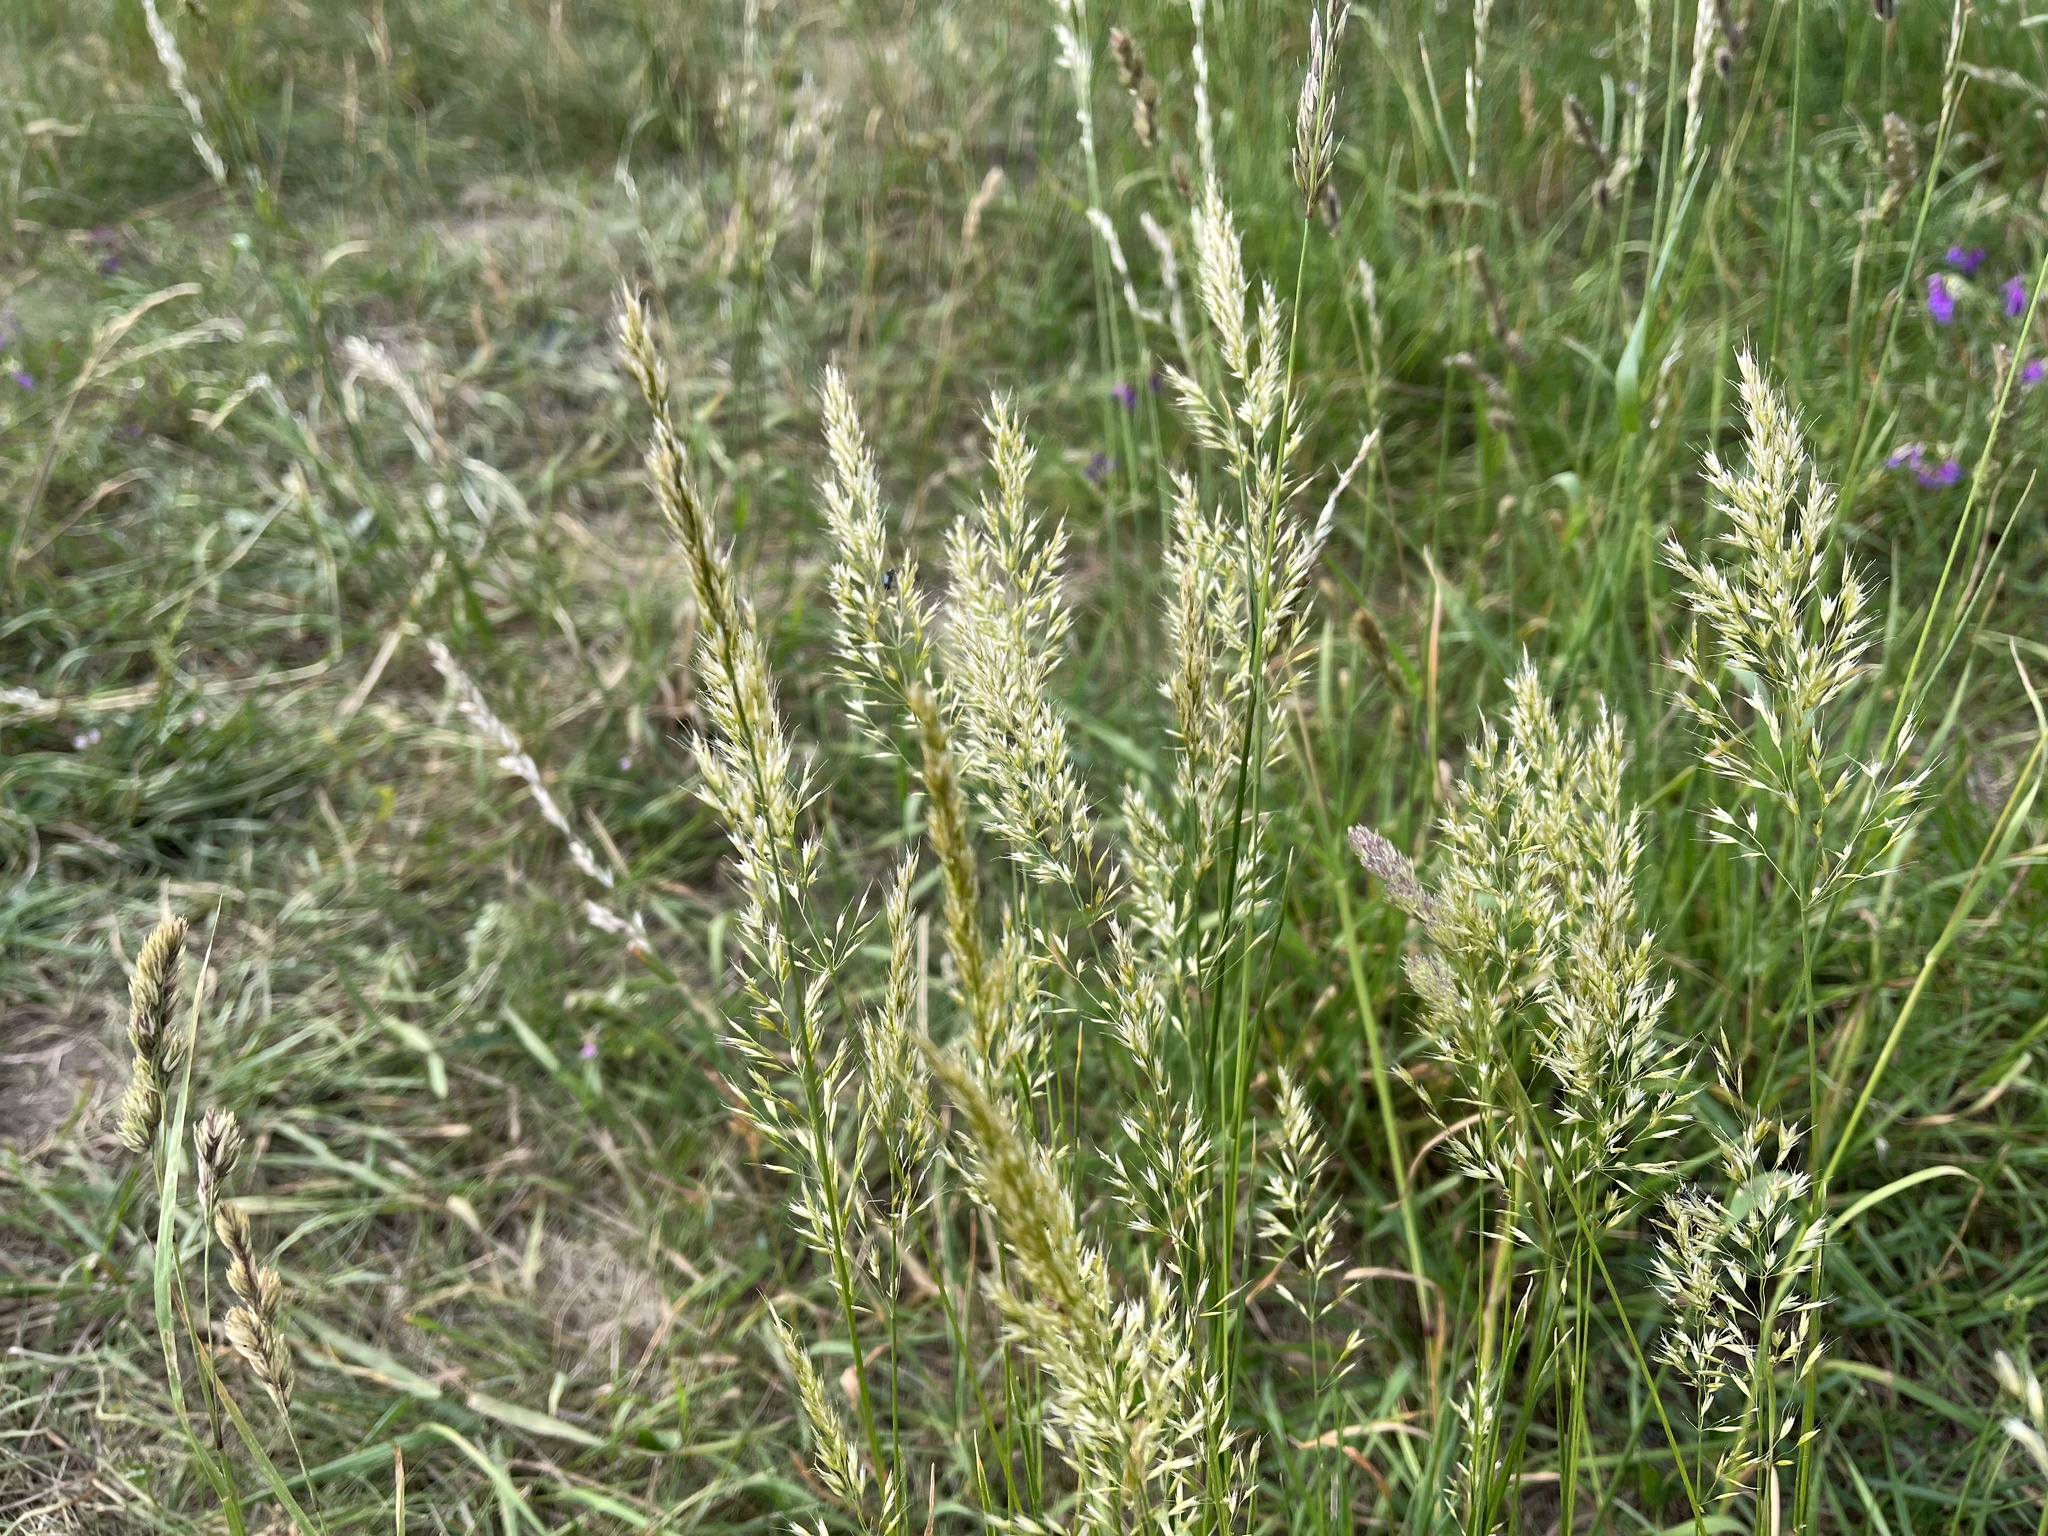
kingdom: Plantae
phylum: Tracheophyta
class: Liliopsida
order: Poales
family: Poaceae
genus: Trisetum
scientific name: Trisetum flavescens
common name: Yellow oat-grass
